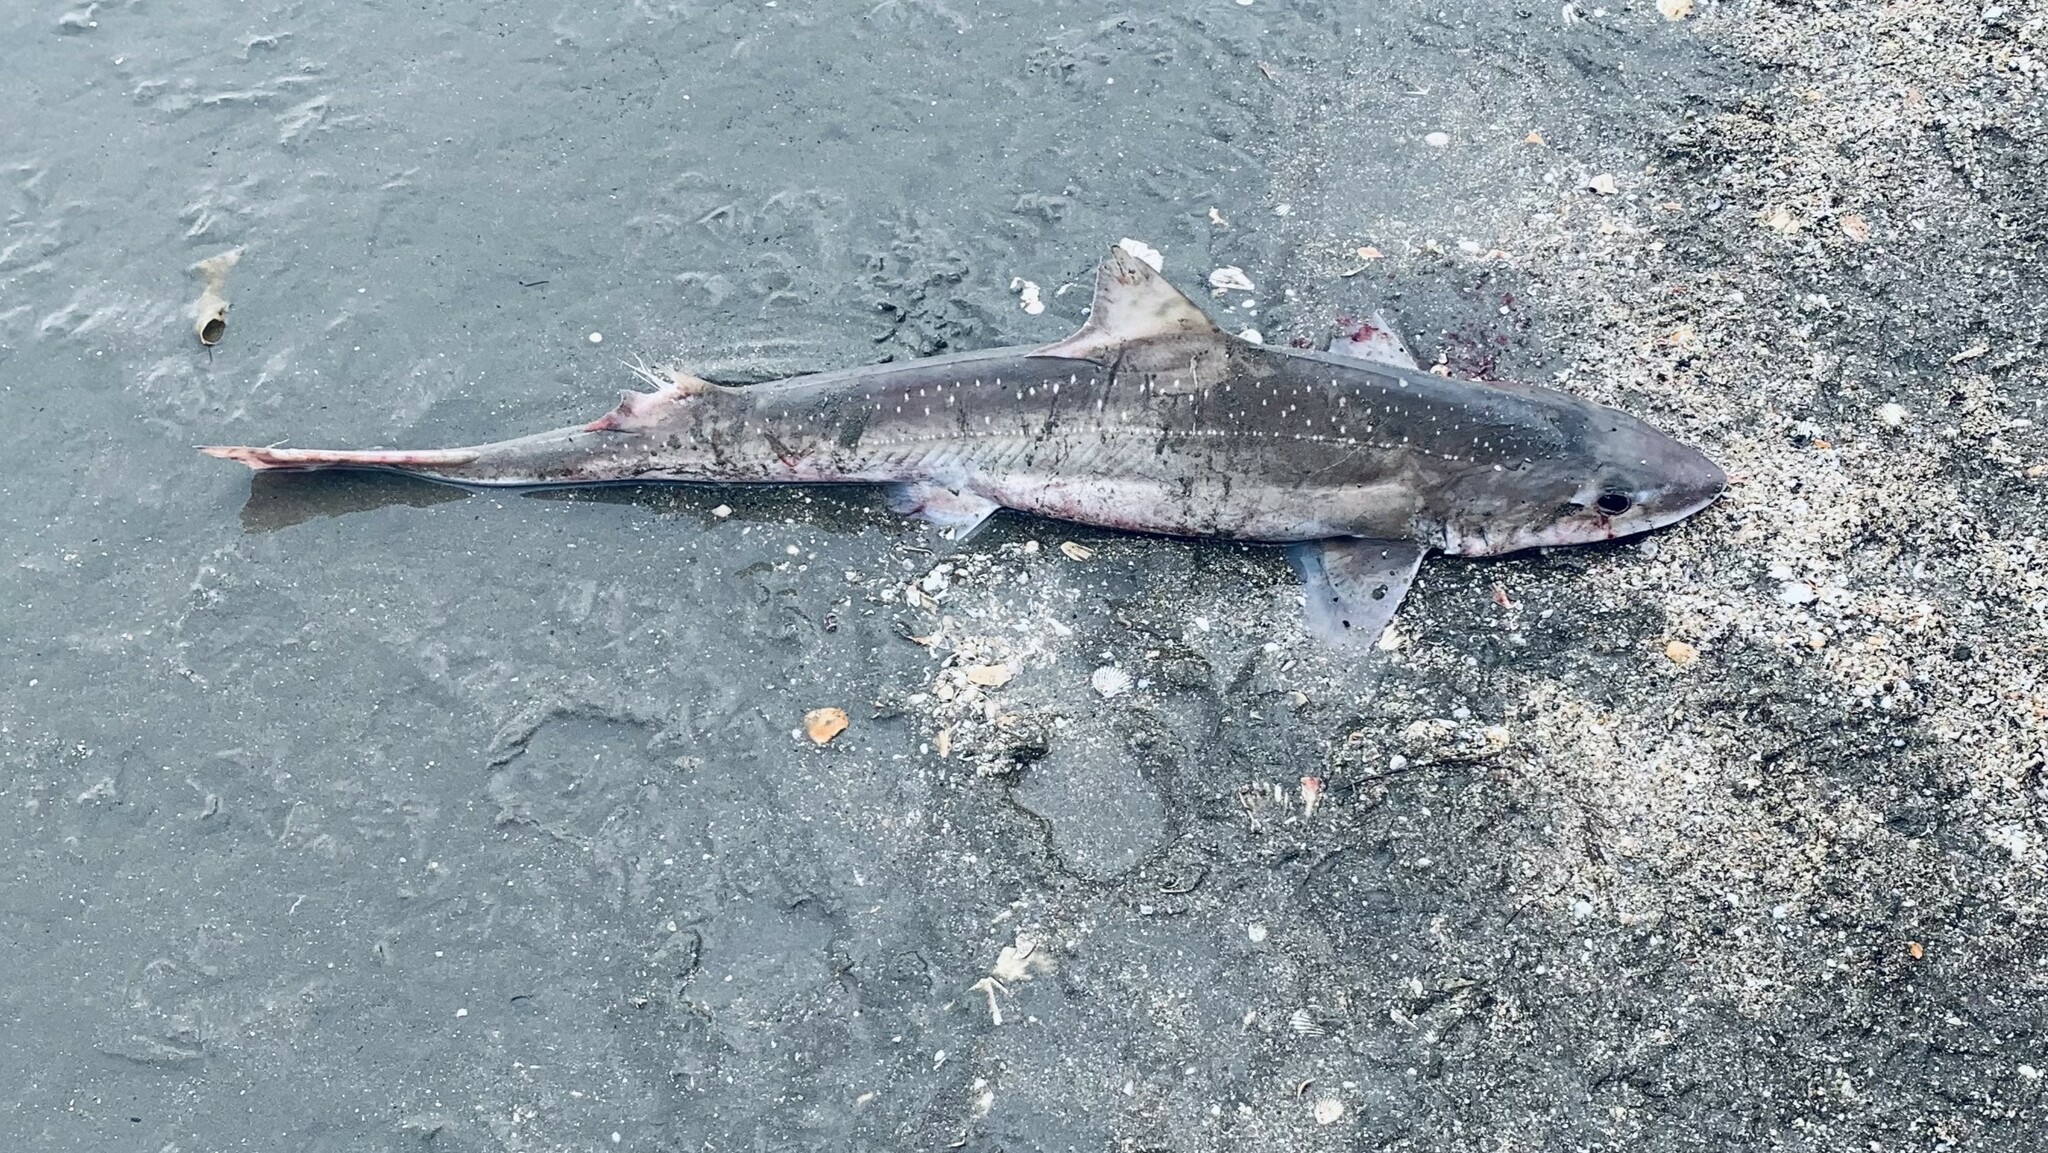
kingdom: Animalia
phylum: Chordata
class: Elasmobranchii
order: Carcharhiniformes
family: Triakidae
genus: Mustelus
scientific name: Mustelus lenticulatus
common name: Gummy shark
